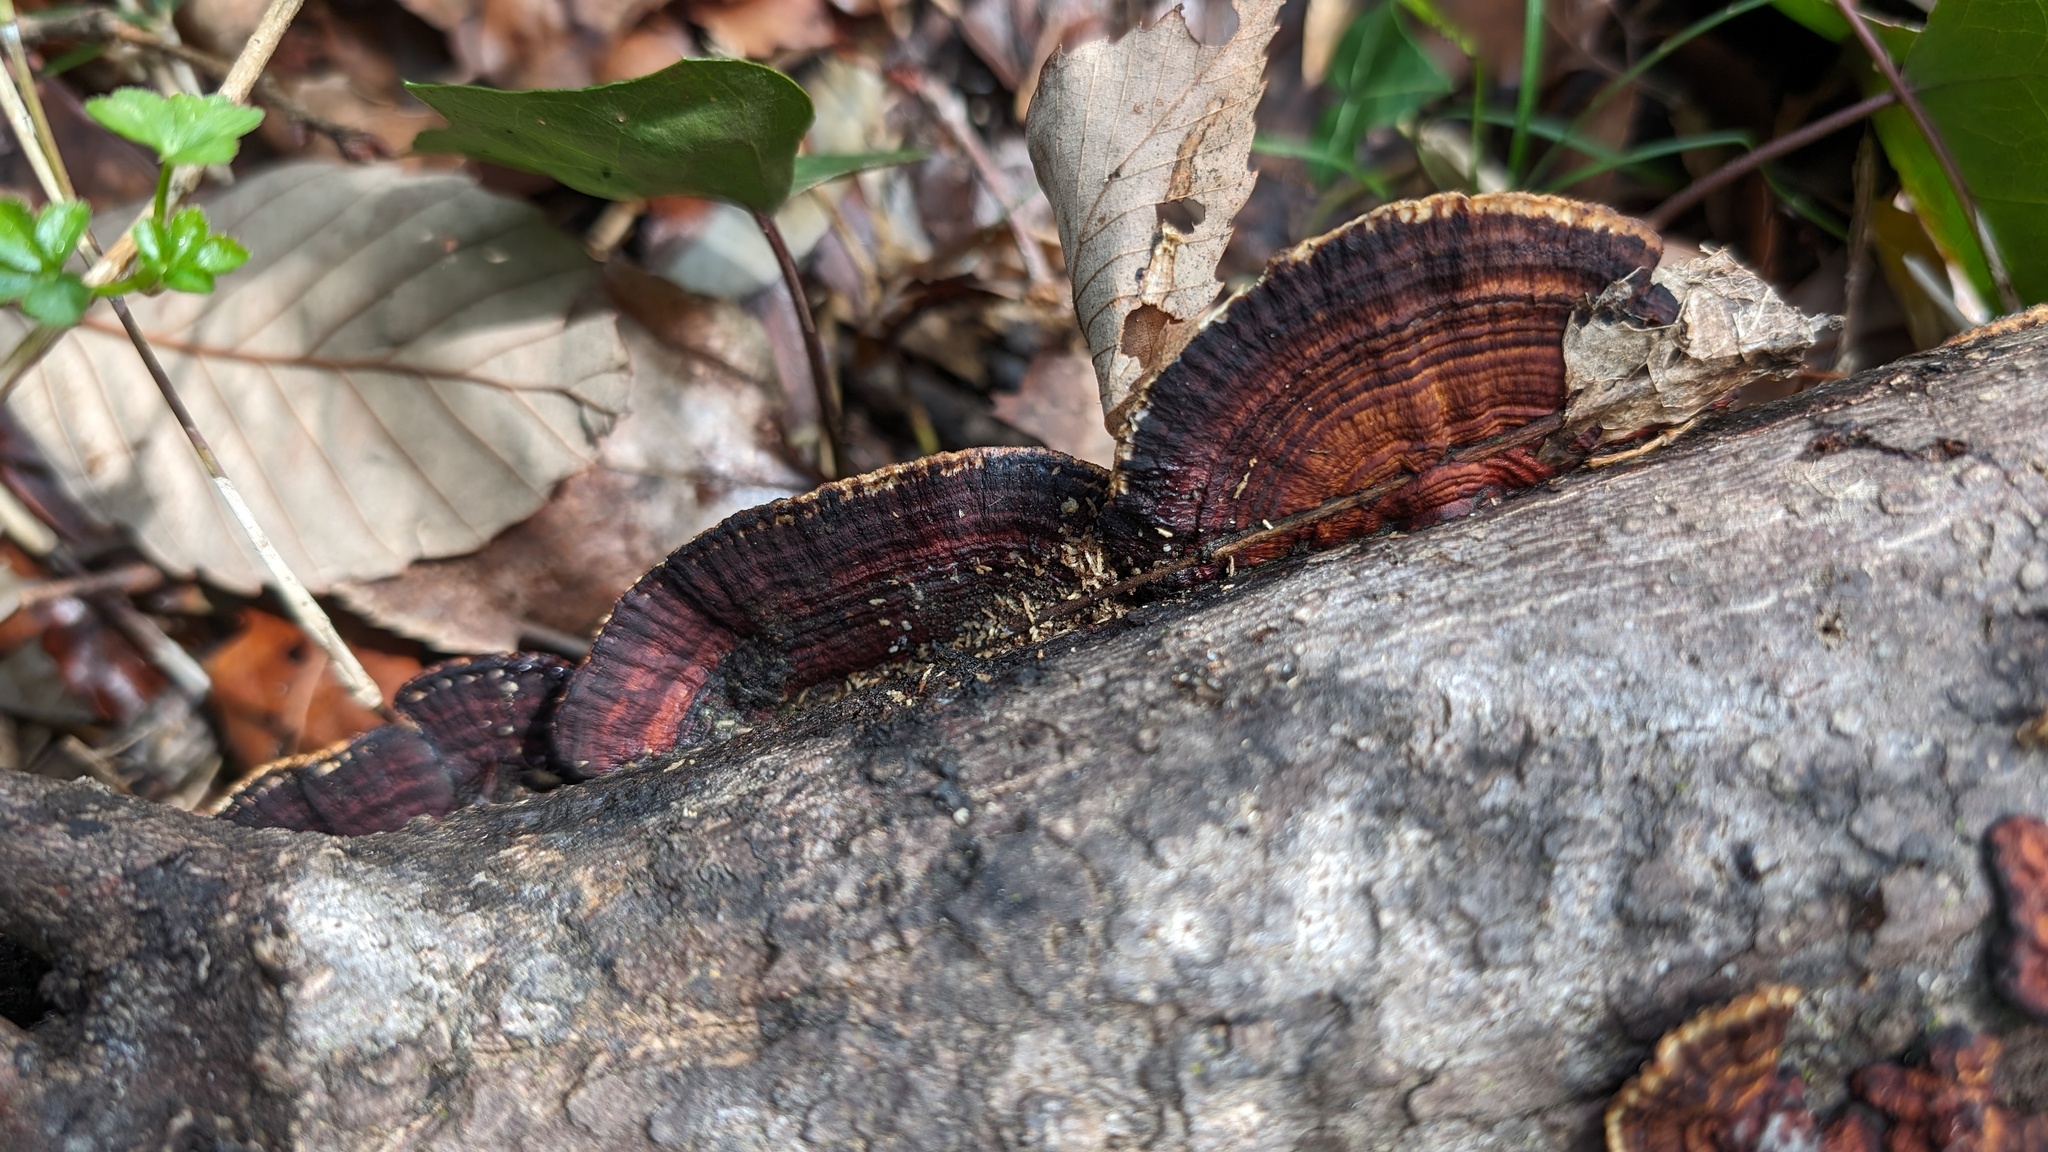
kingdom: Fungi
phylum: Basidiomycota
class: Agaricomycetes
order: Polyporales
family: Polyporaceae
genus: Lenzites
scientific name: Lenzites styracinus
